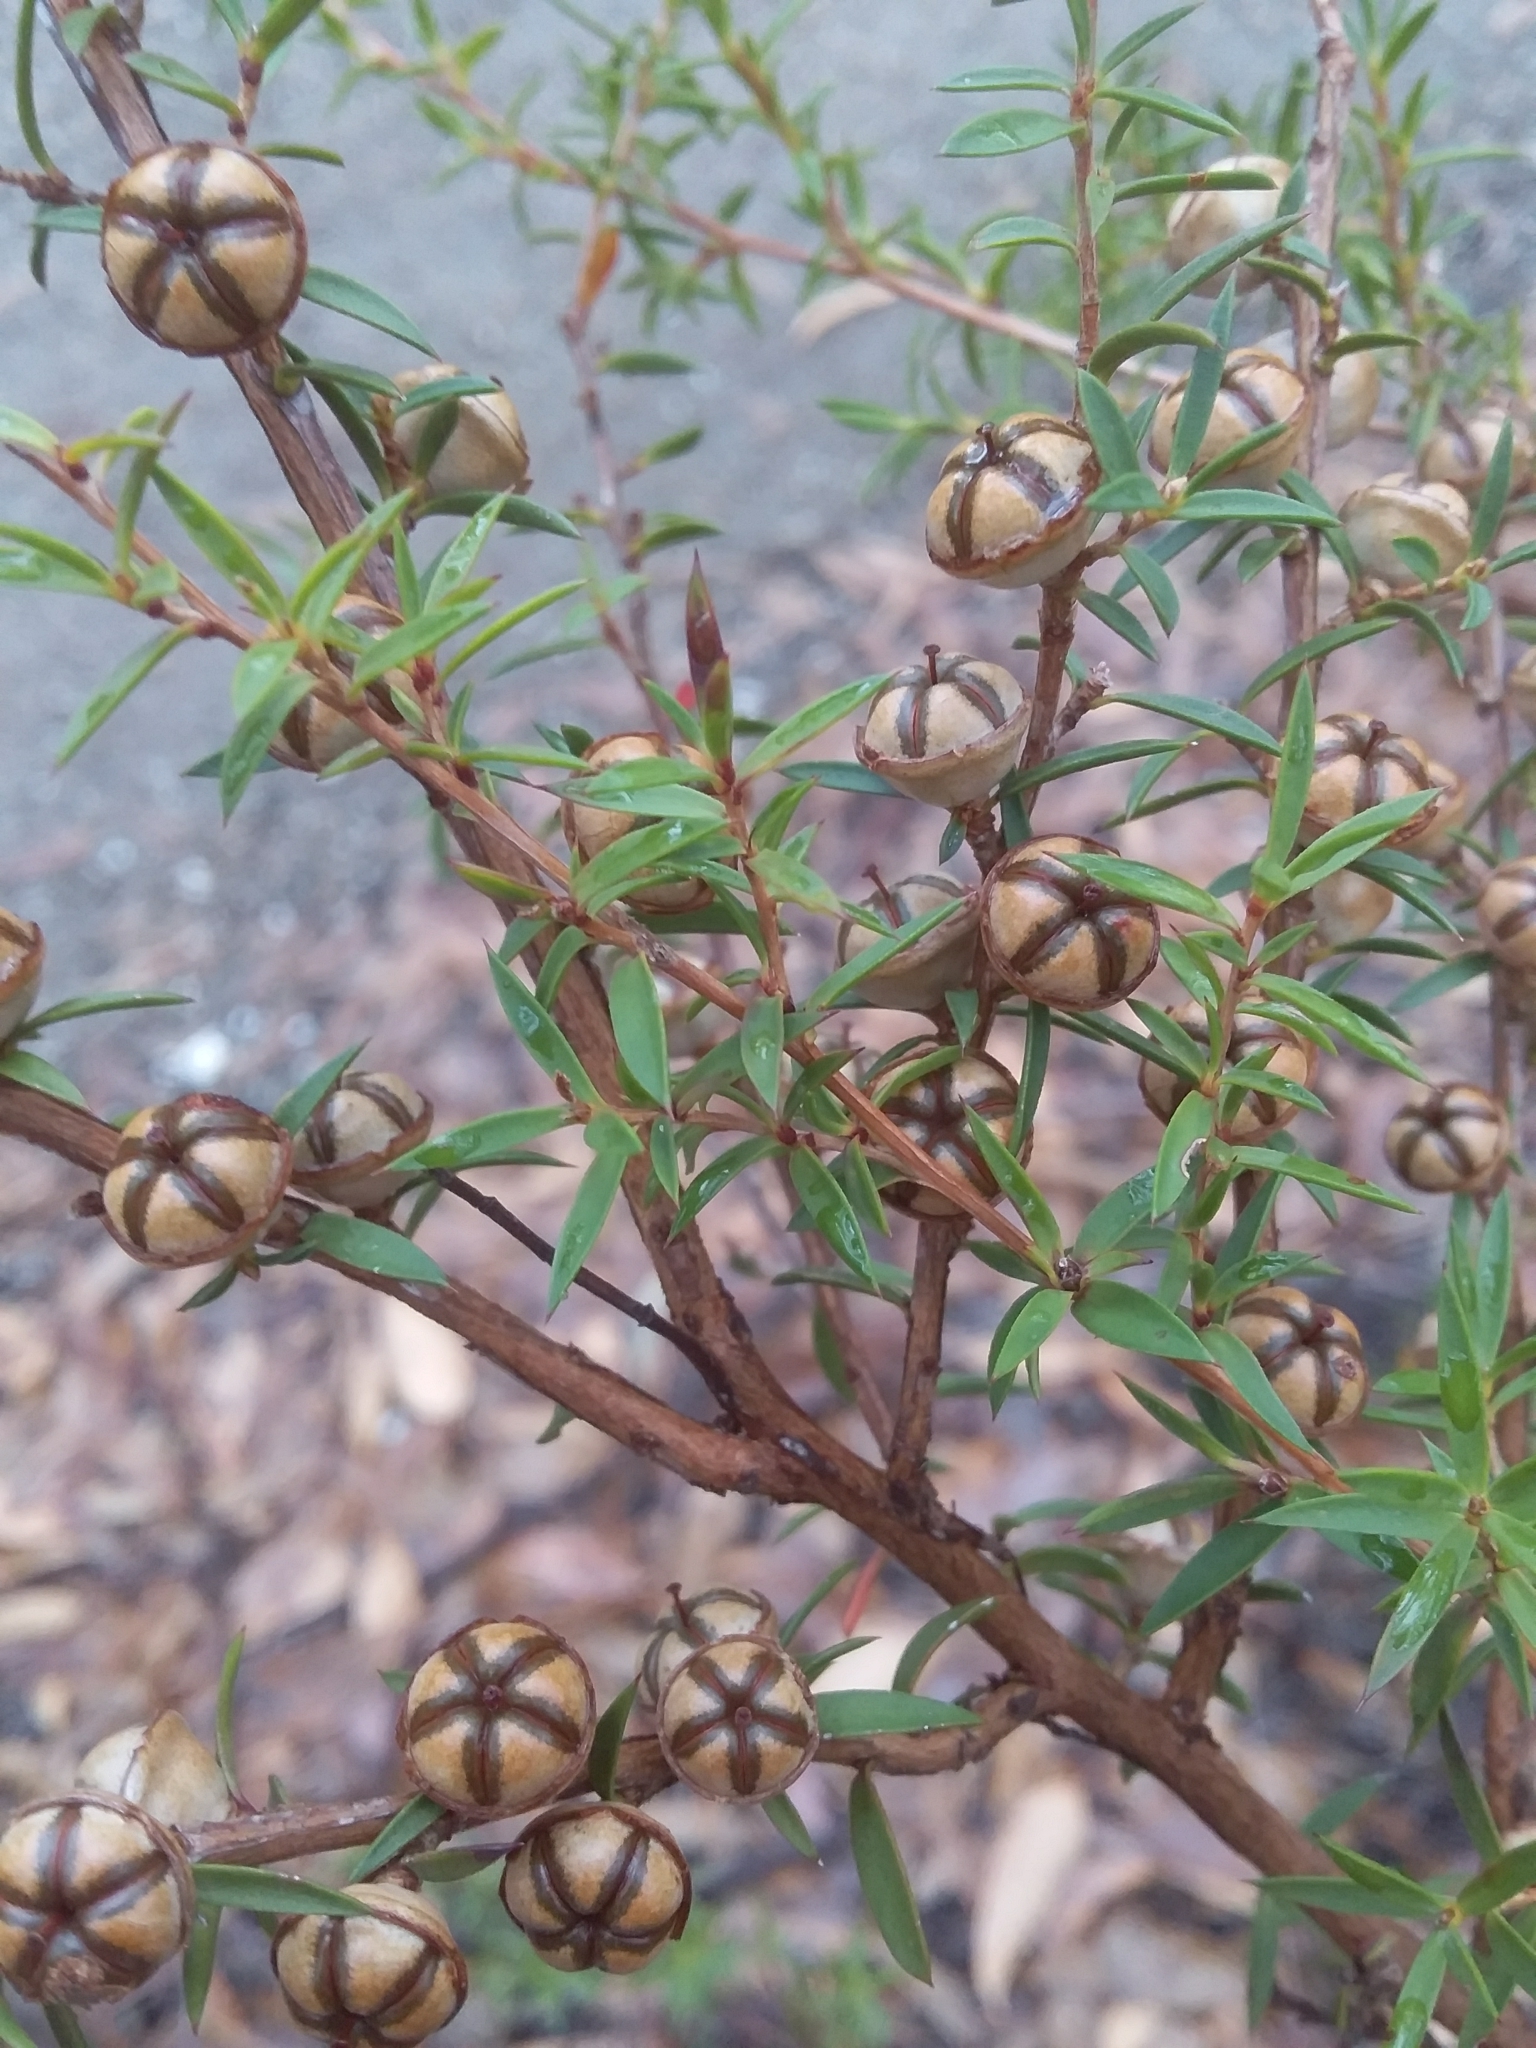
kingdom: Plantae
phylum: Tracheophyta
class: Magnoliopsida
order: Myrtales
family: Myrtaceae
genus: Leptospermum
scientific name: Leptospermum continentale
